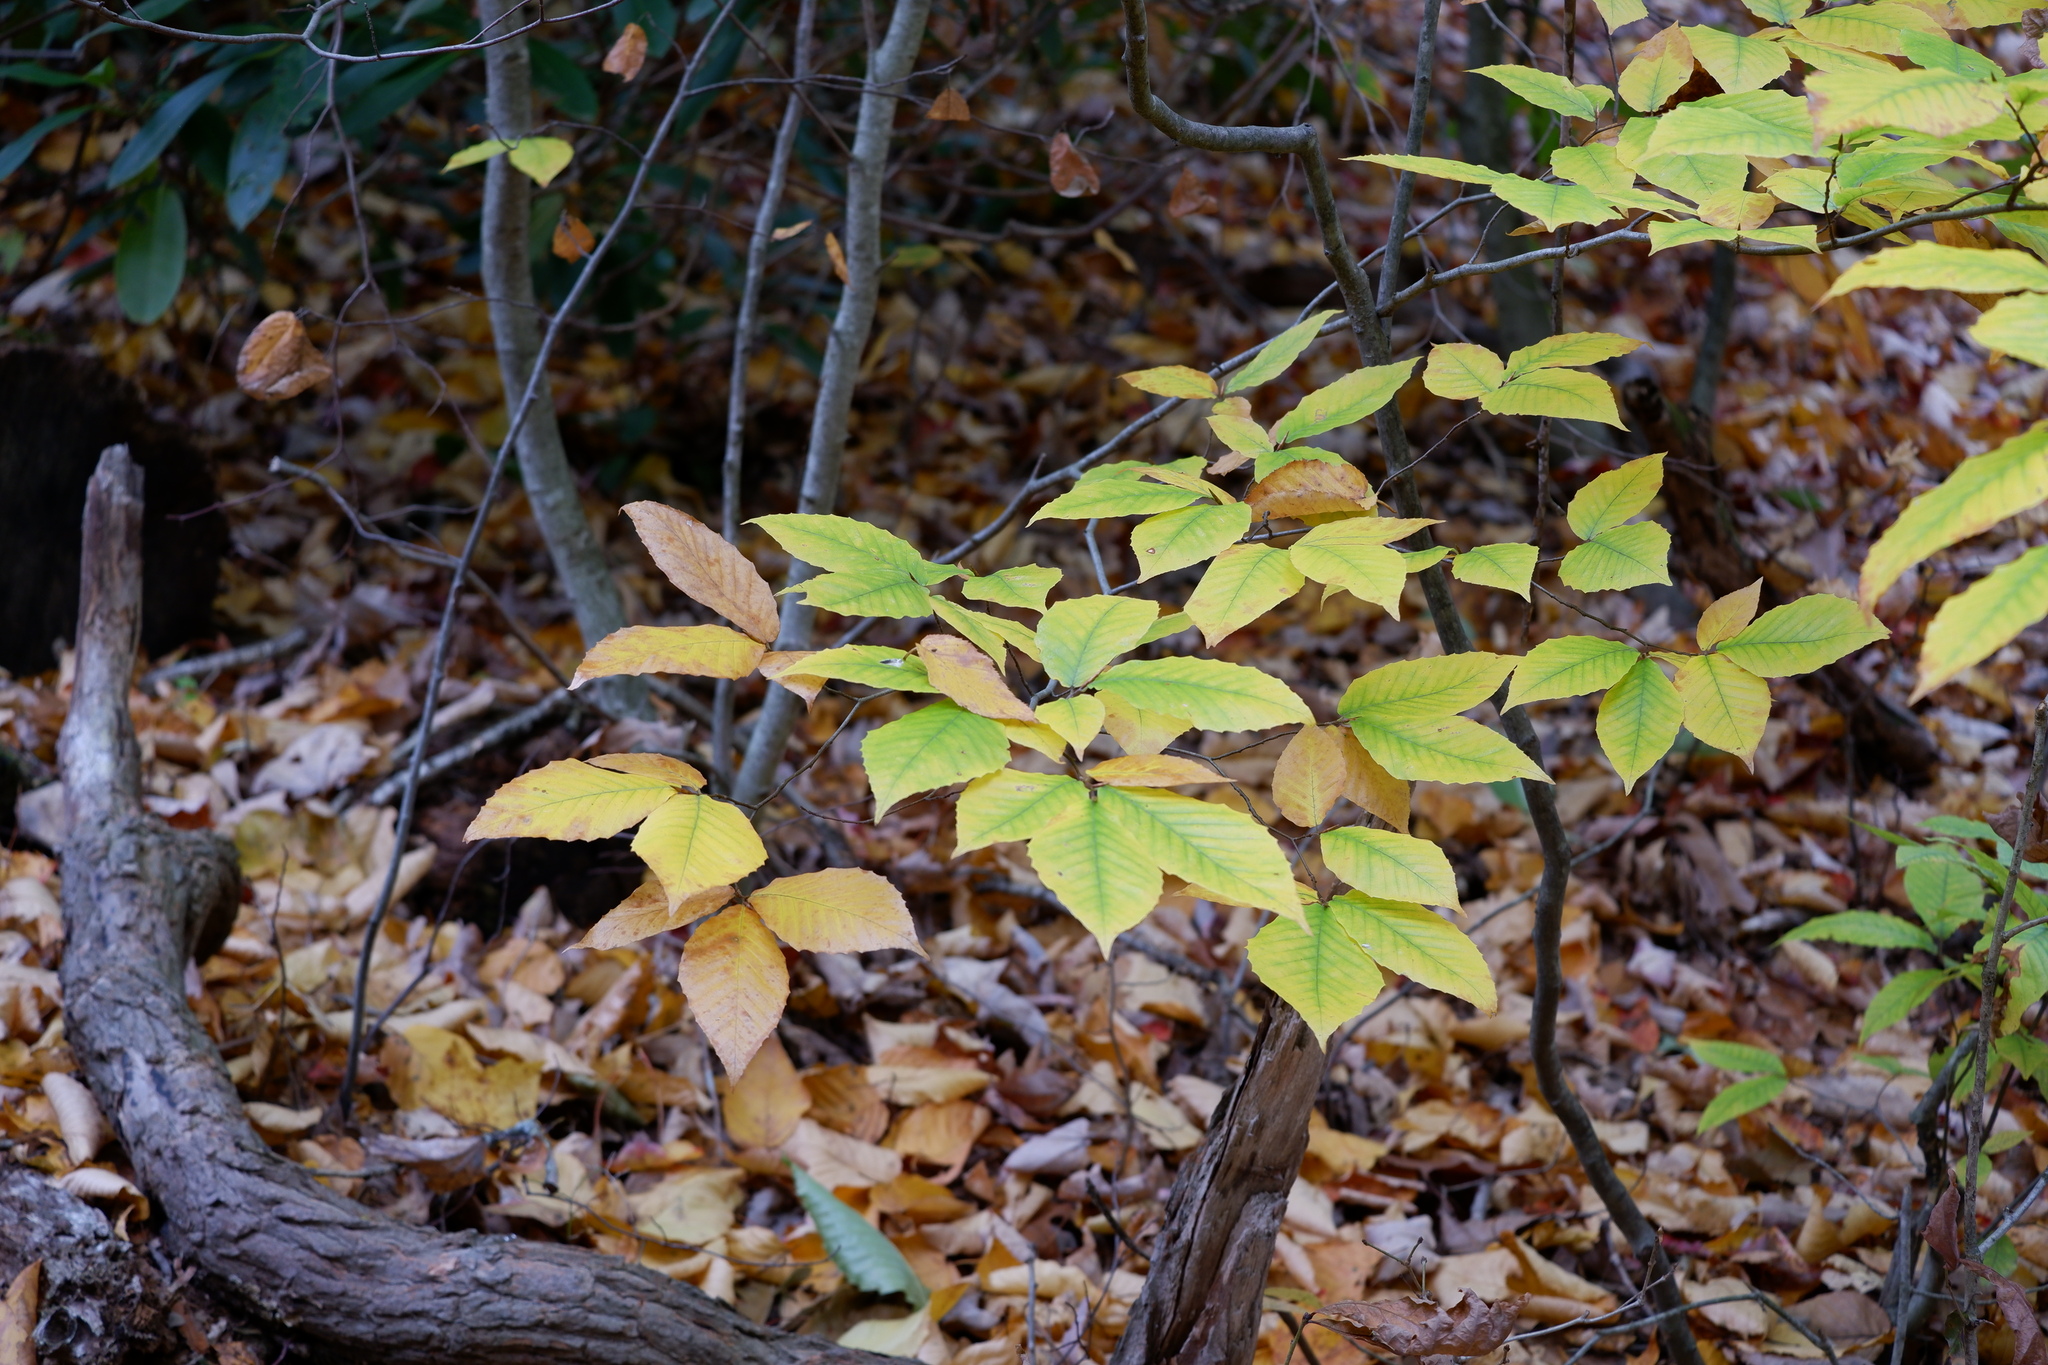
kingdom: Plantae
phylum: Tracheophyta
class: Magnoliopsida
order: Fagales
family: Fagaceae
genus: Fagus
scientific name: Fagus grandifolia
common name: American beech
